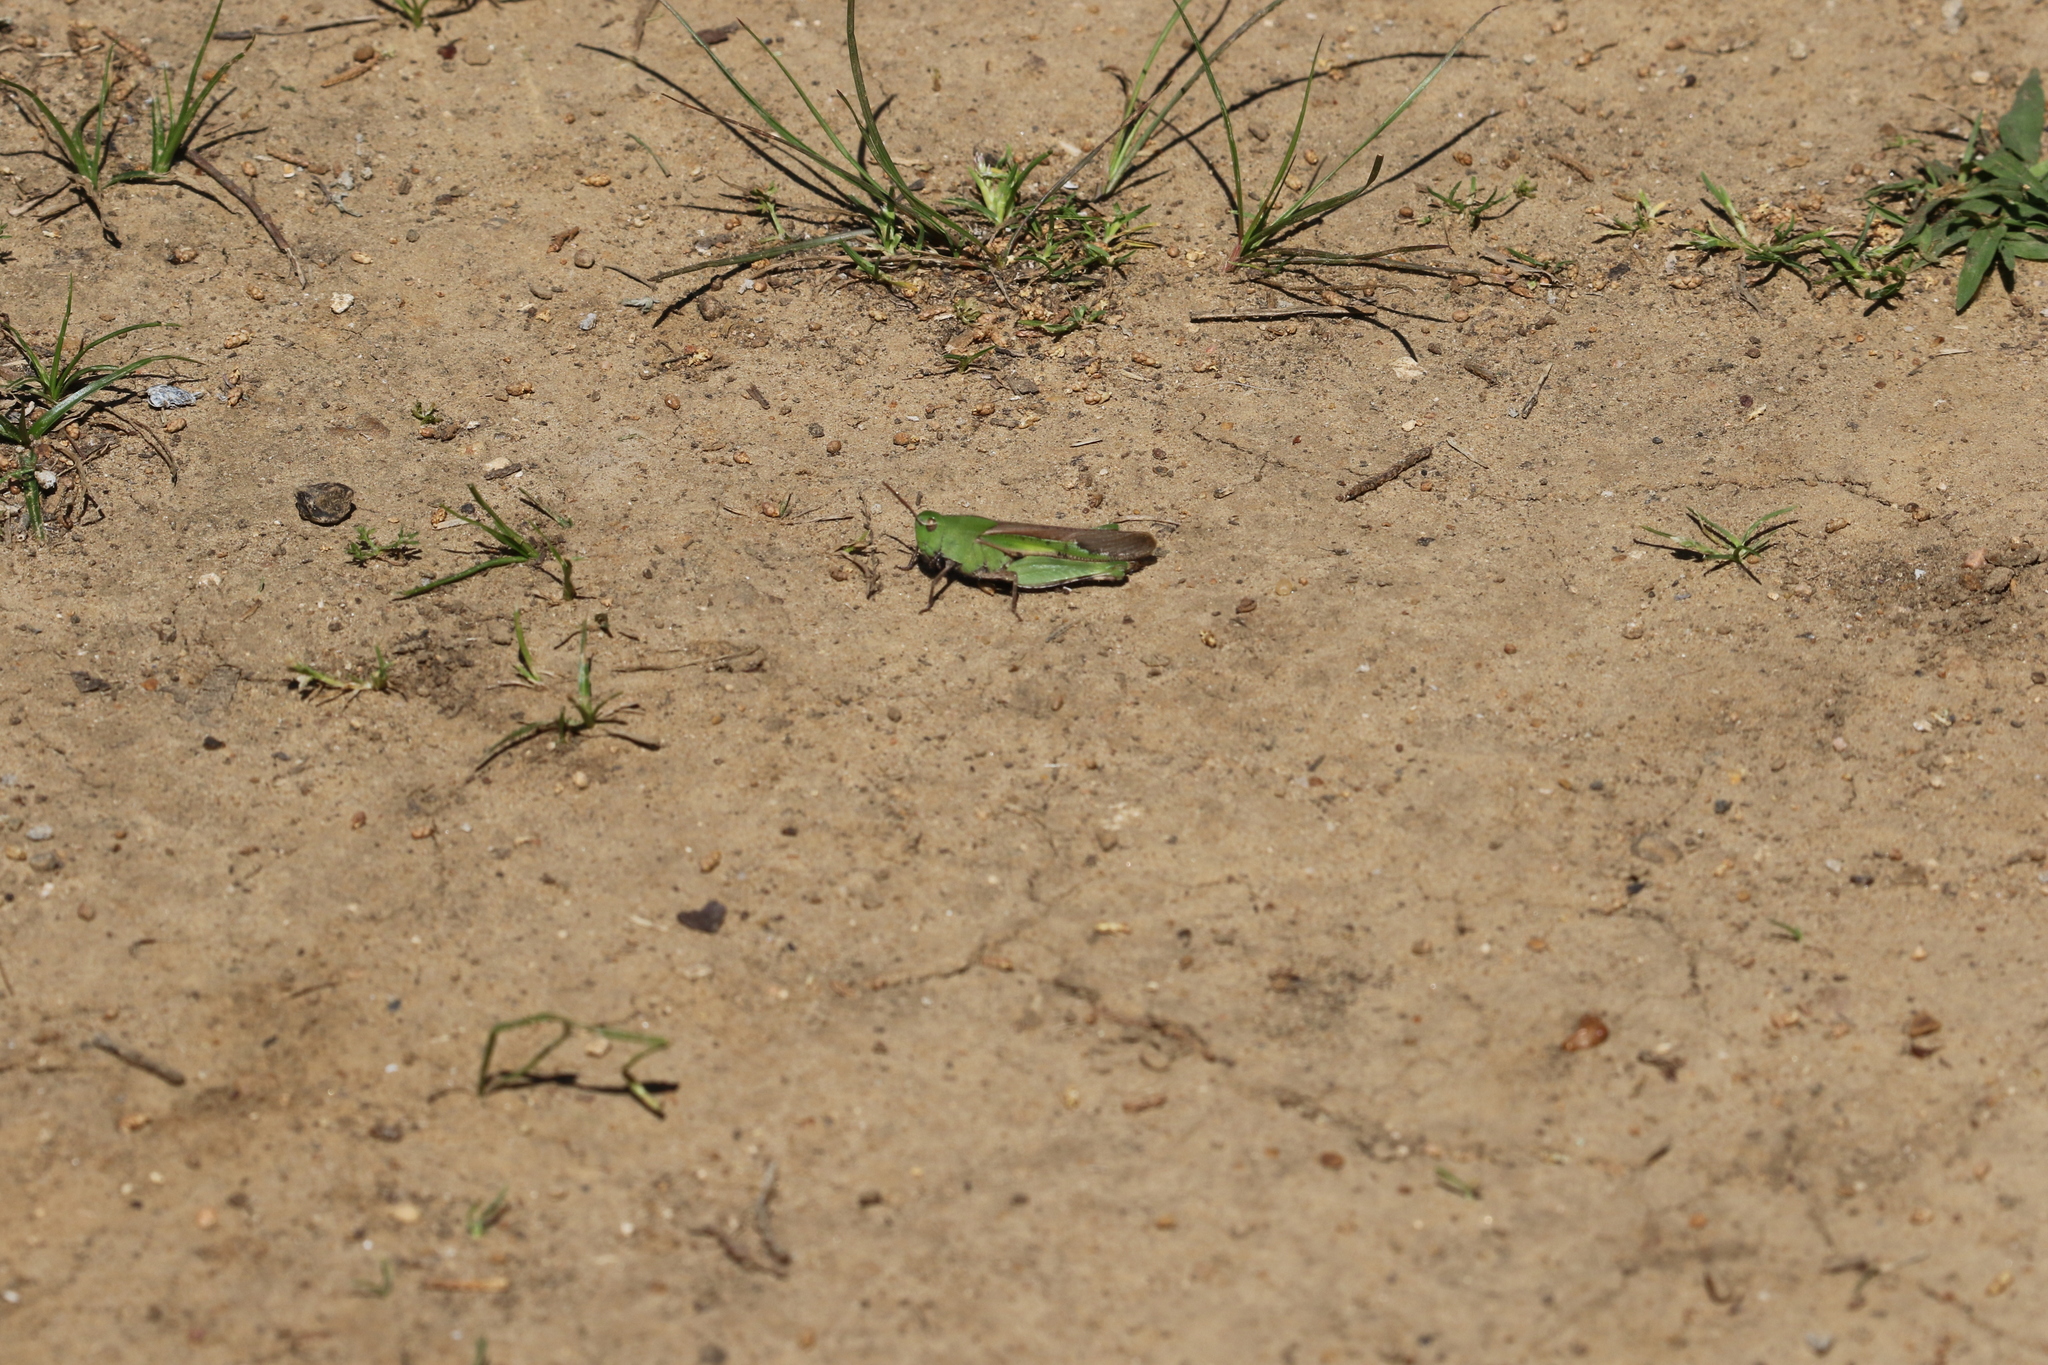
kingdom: Animalia
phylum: Arthropoda
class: Insecta
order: Orthoptera
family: Acrididae
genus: Chortophaga
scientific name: Chortophaga viridifasciata
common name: Green-striped grasshopper
